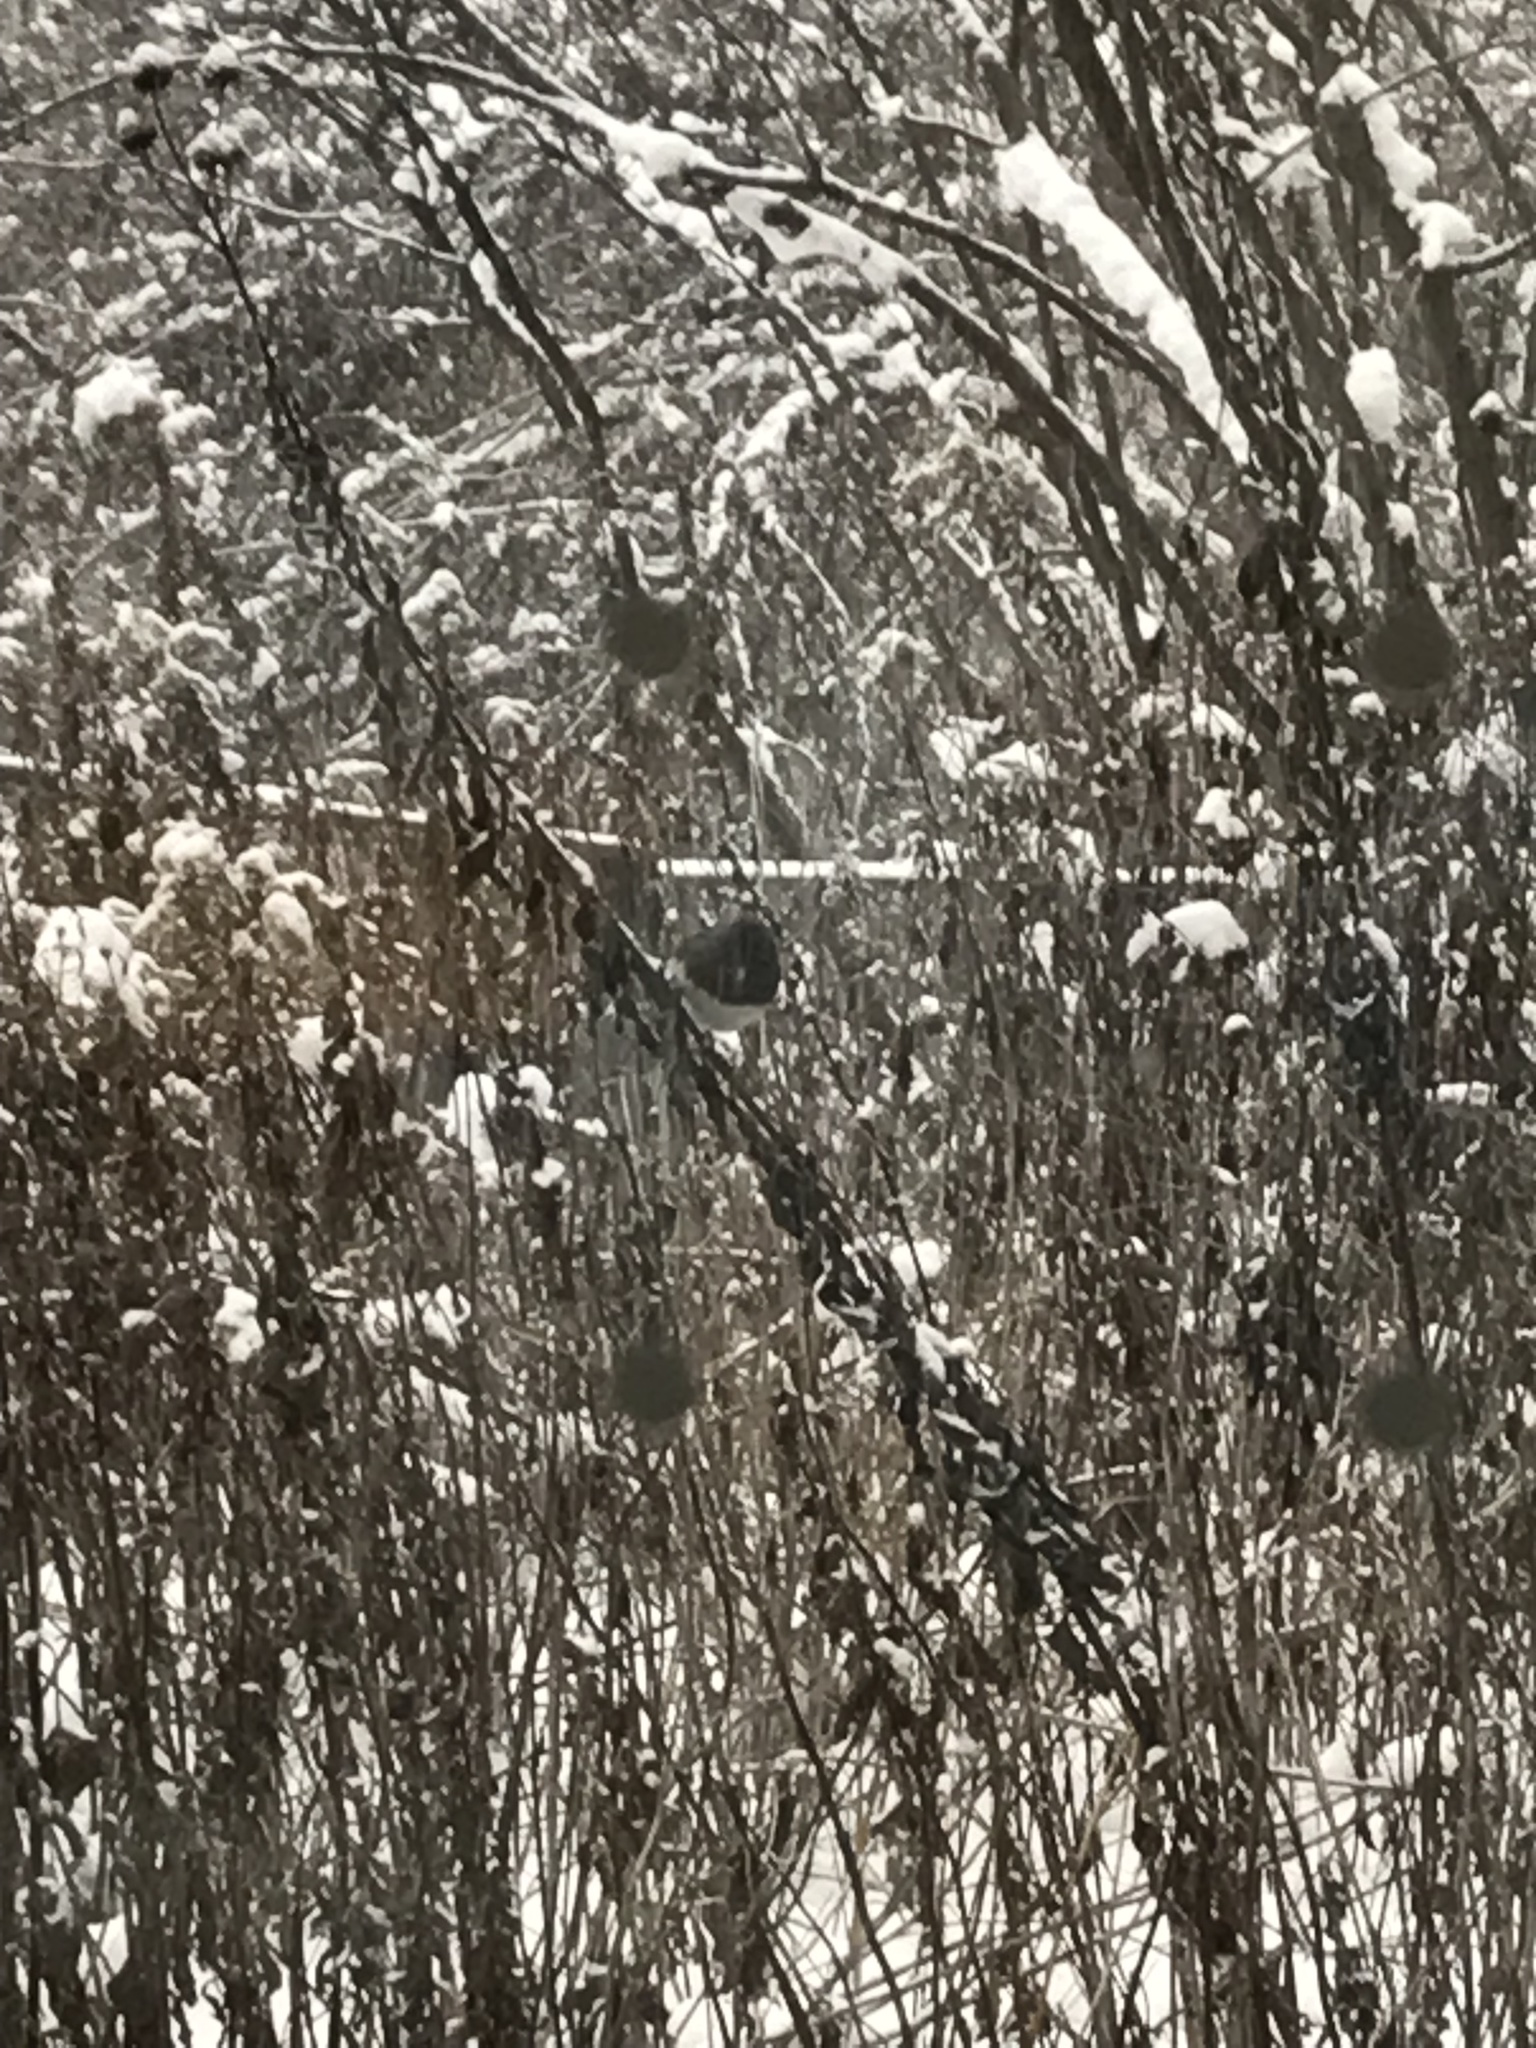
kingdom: Animalia
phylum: Chordata
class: Aves
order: Passeriformes
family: Passerellidae
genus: Junco
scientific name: Junco hyemalis
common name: Dark-eyed junco
